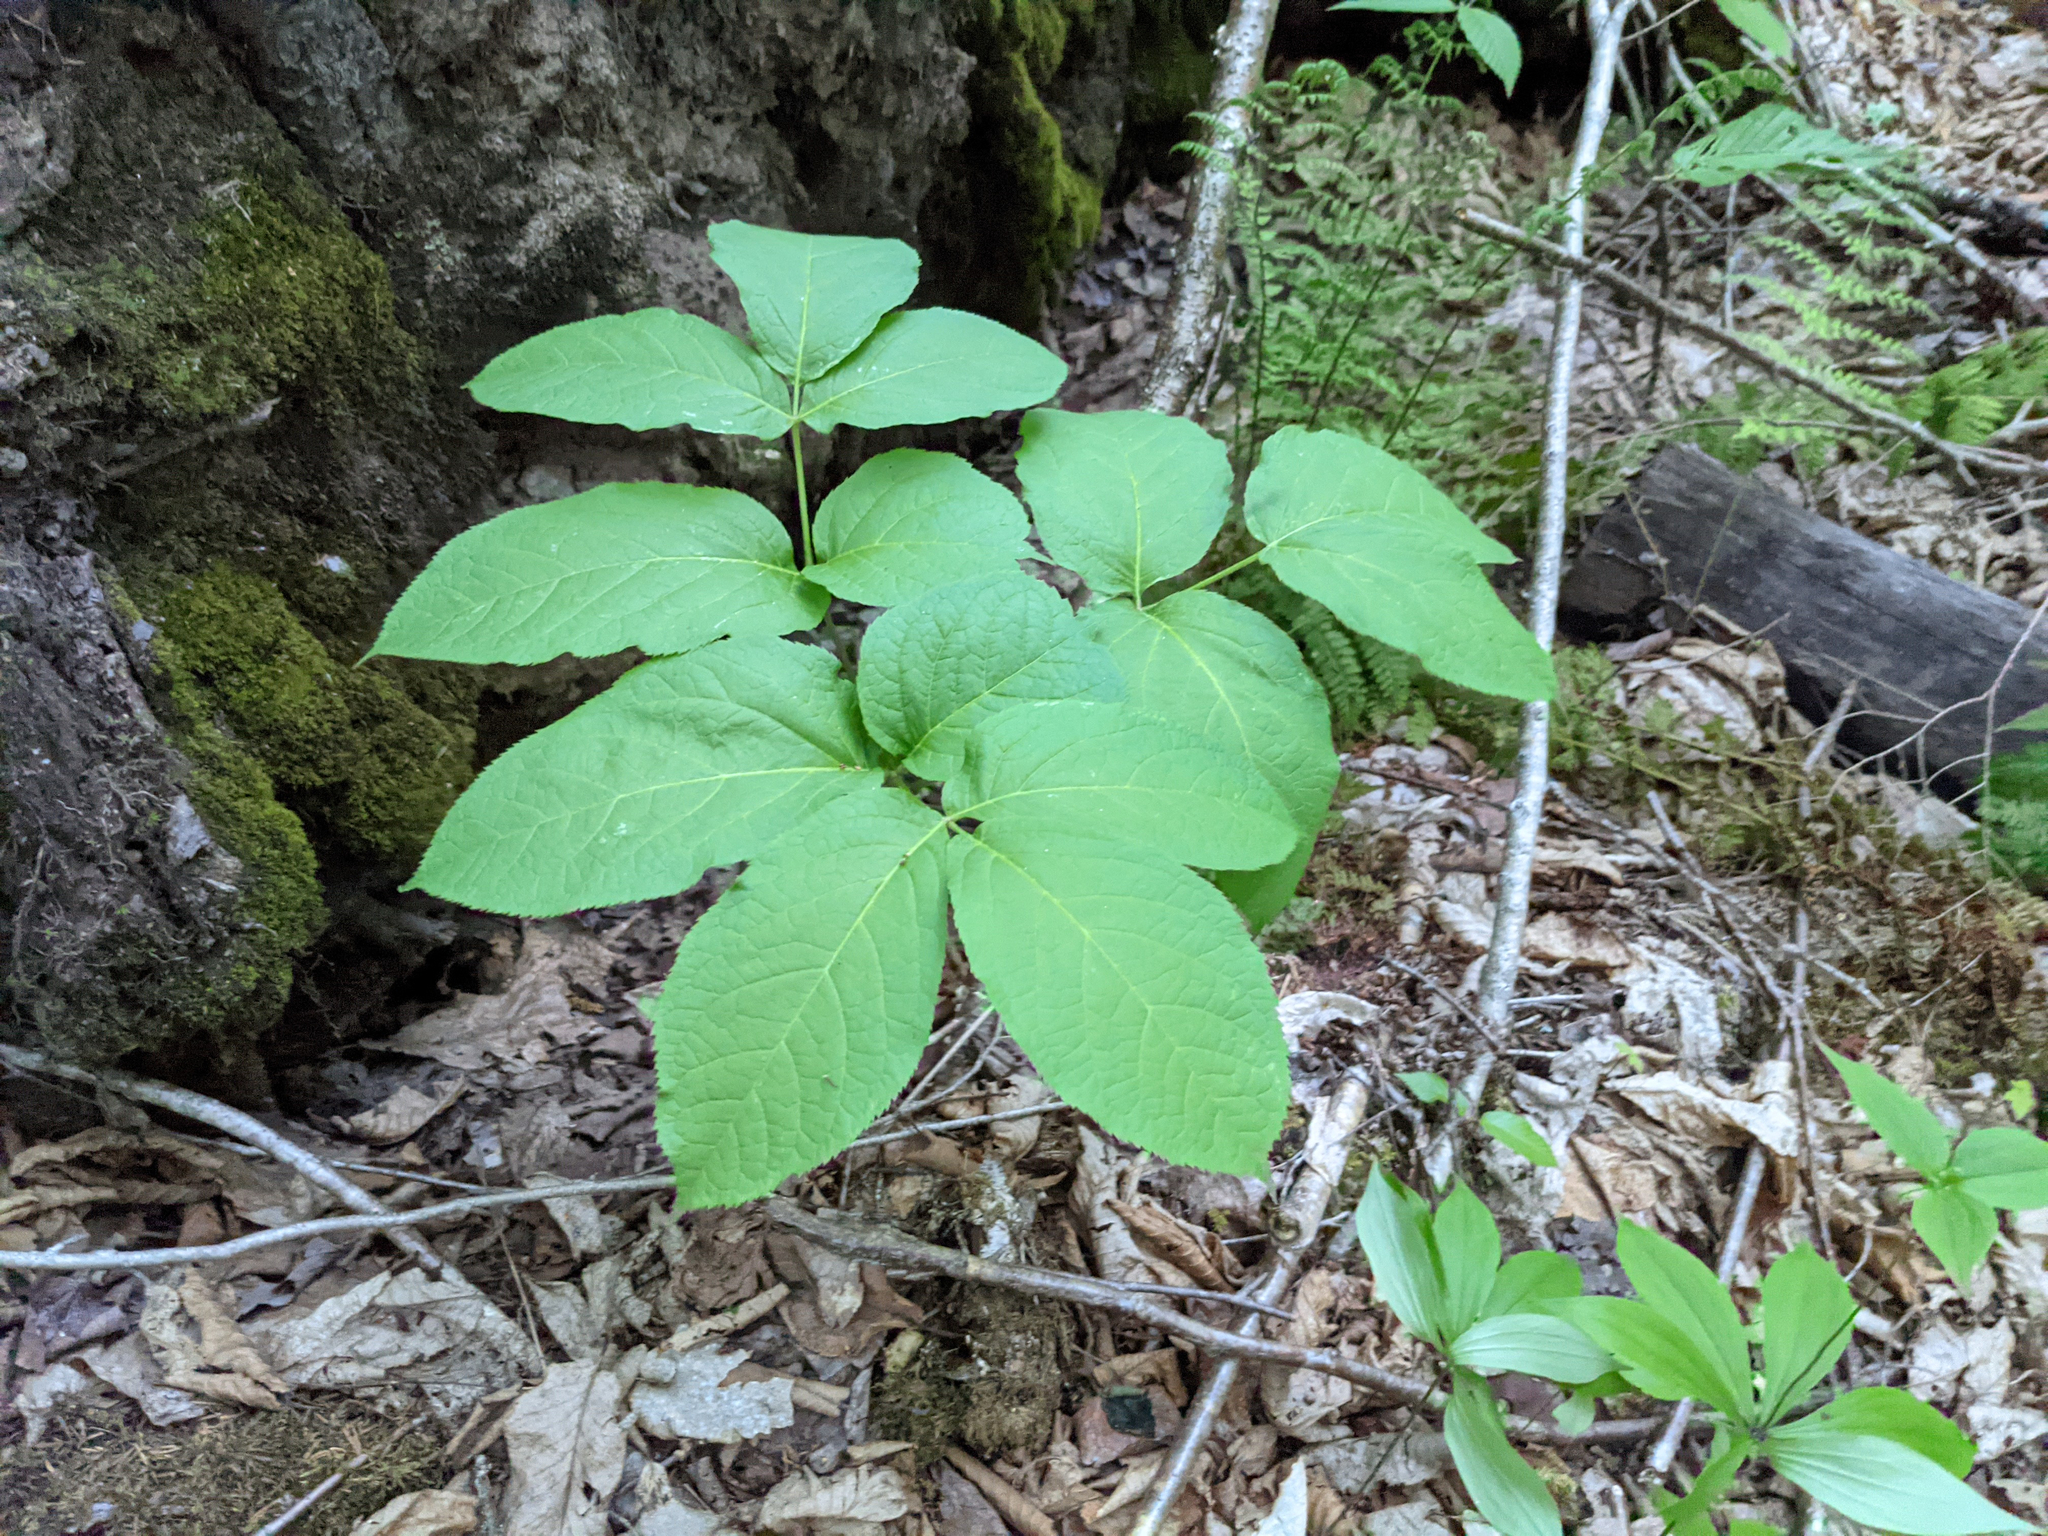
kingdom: Plantae
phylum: Tracheophyta
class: Magnoliopsida
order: Apiales
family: Araliaceae
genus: Aralia
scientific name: Aralia nudicaulis
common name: Wild sarsaparilla
